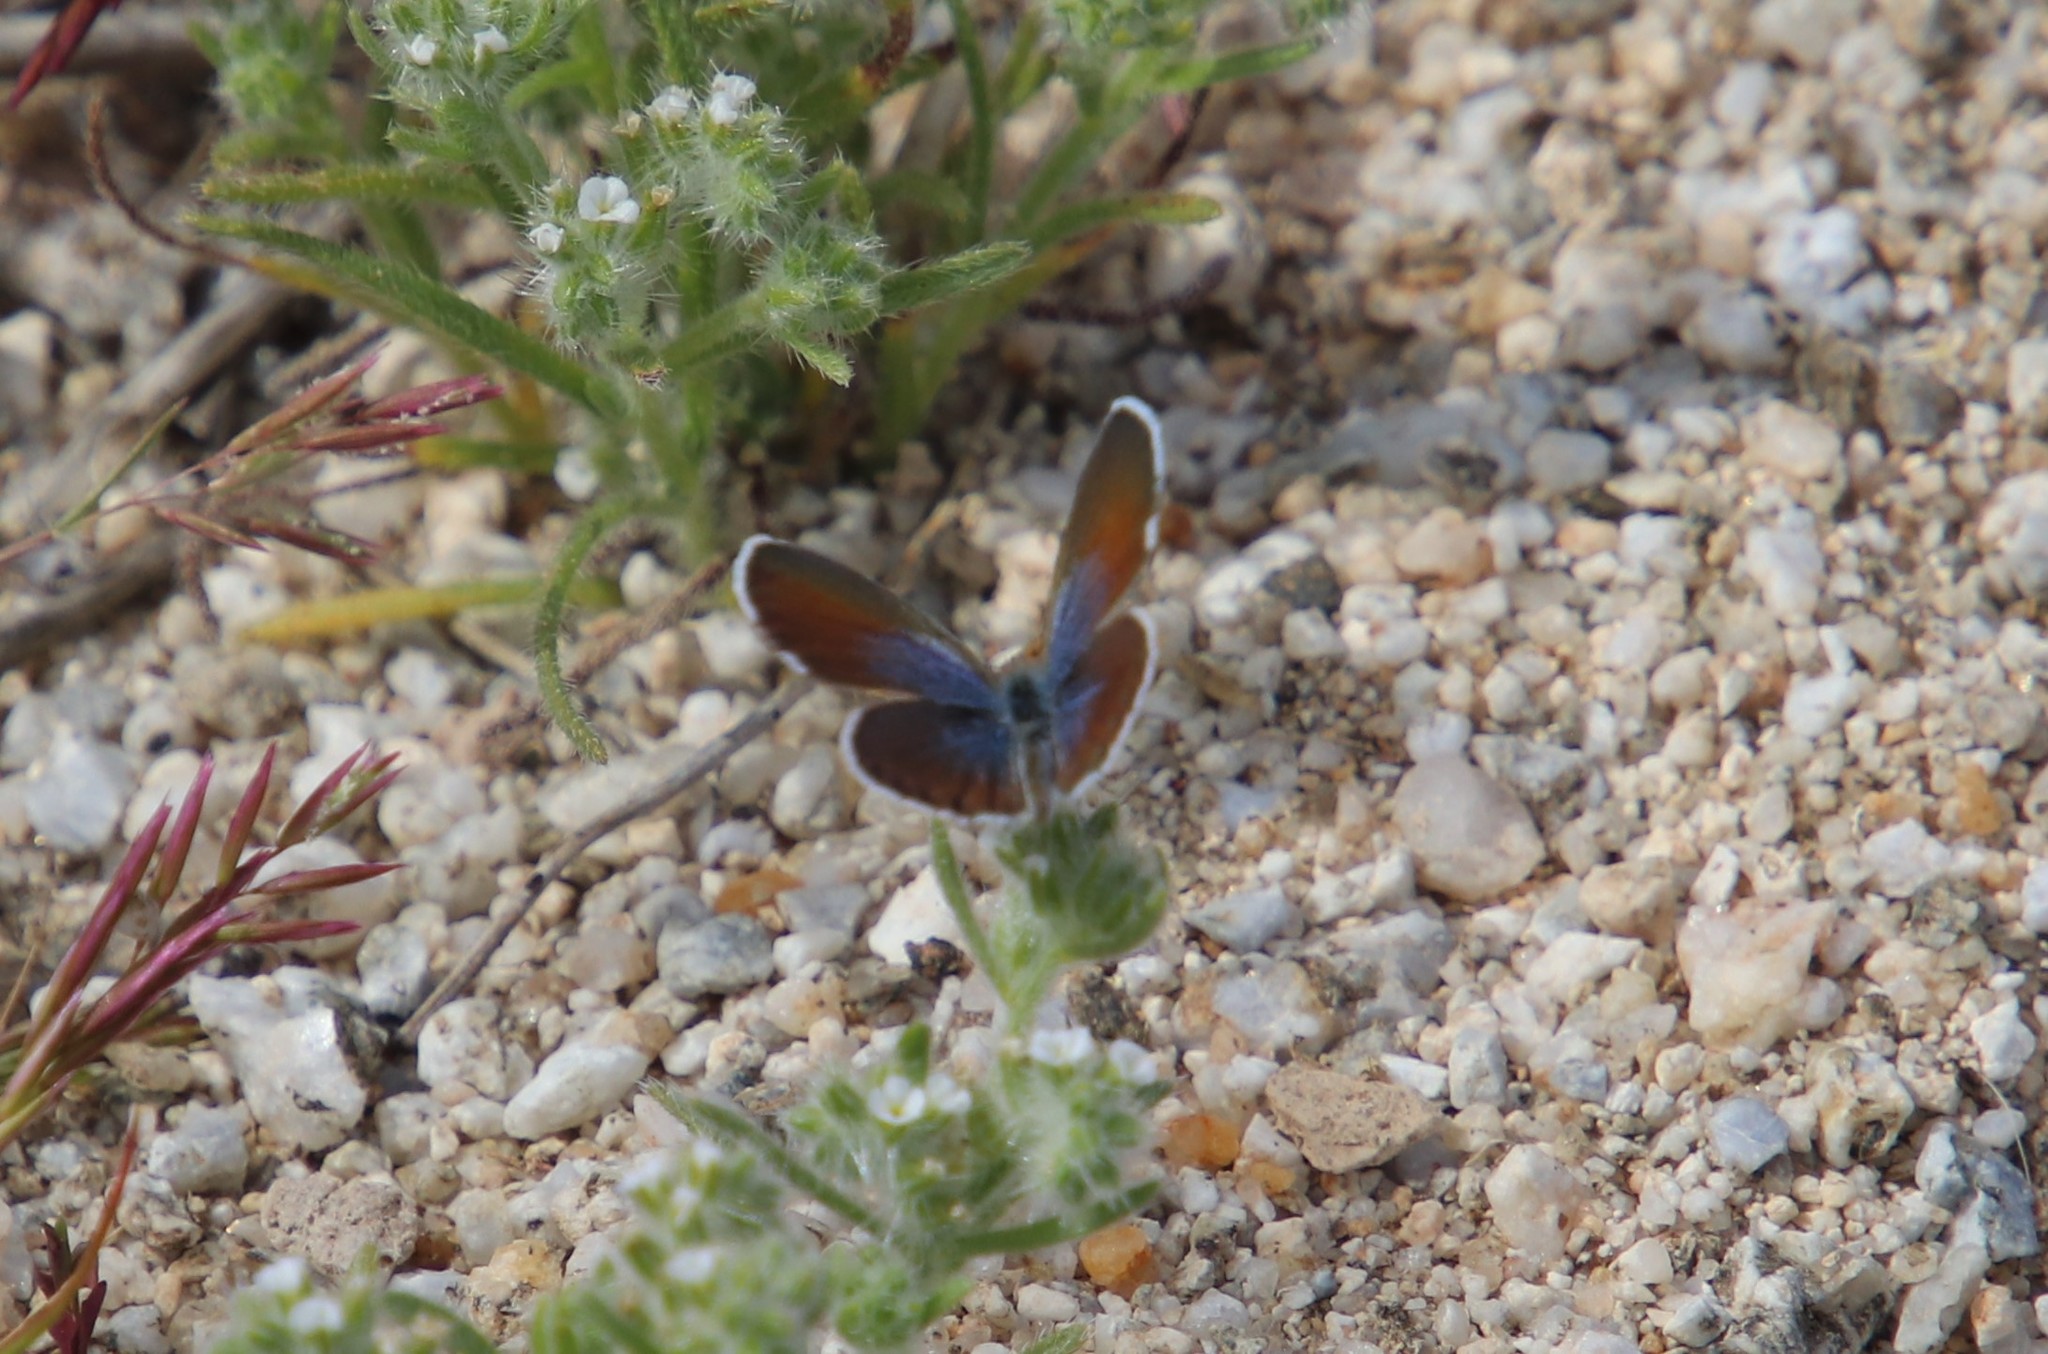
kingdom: Animalia
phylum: Arthropoda
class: Insecta
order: Lepidoptera
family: Lycaenidae
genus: Brephidium
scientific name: Brephidium exilis
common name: Pygmy blue
